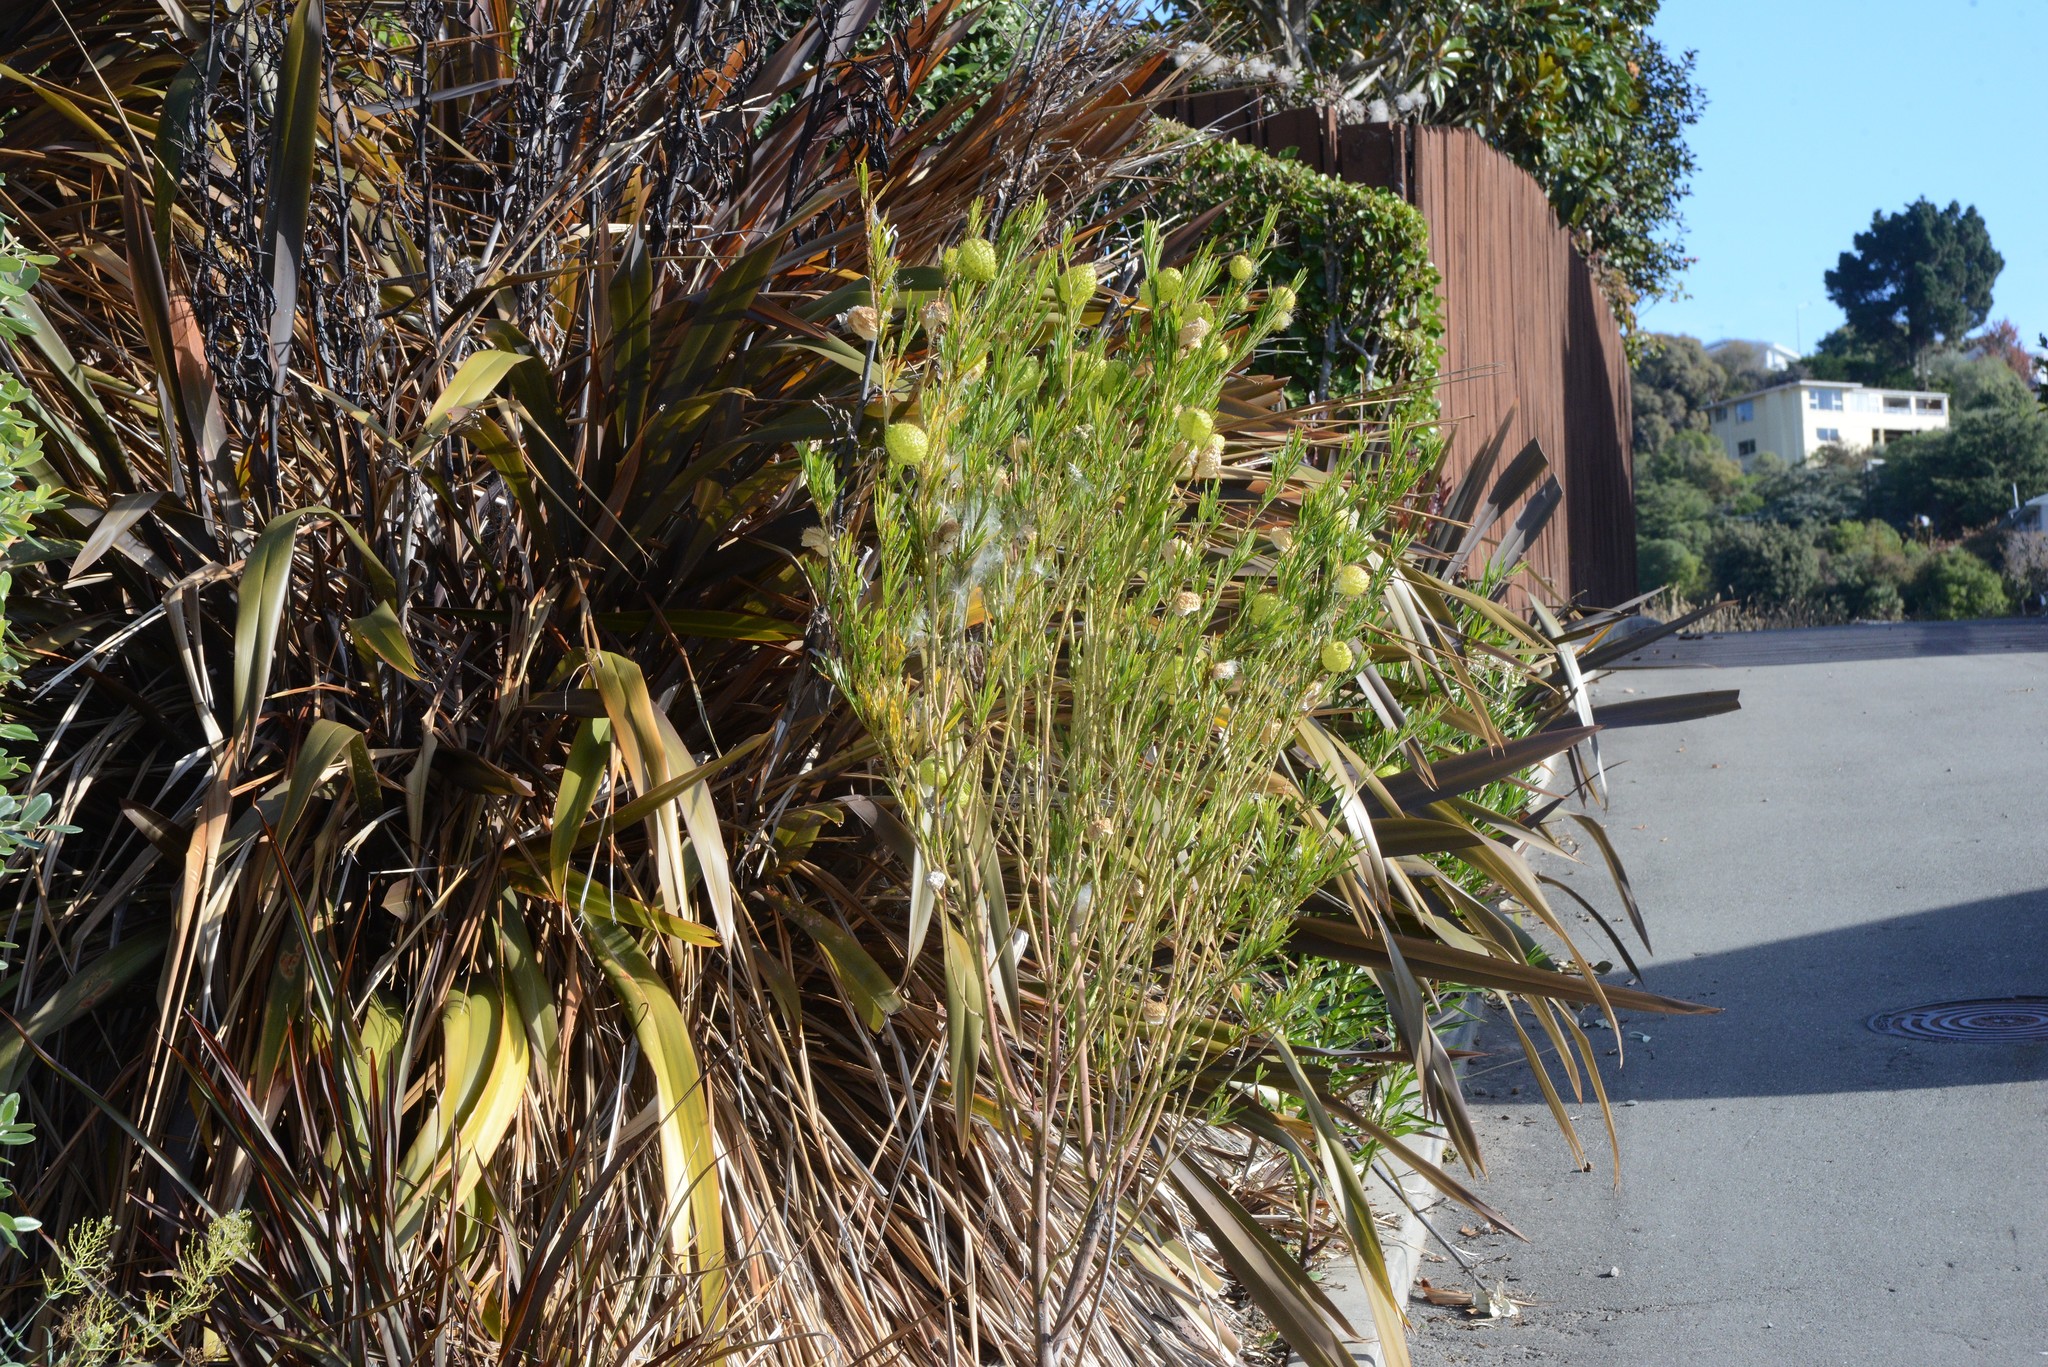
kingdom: Plantae
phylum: Tracheophyta
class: Magnoliopsida
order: Gentianales
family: Apocynaceae
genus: Gomphocarpus
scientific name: Gomphocarpus physocarpus
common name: Balloon cotton bush
